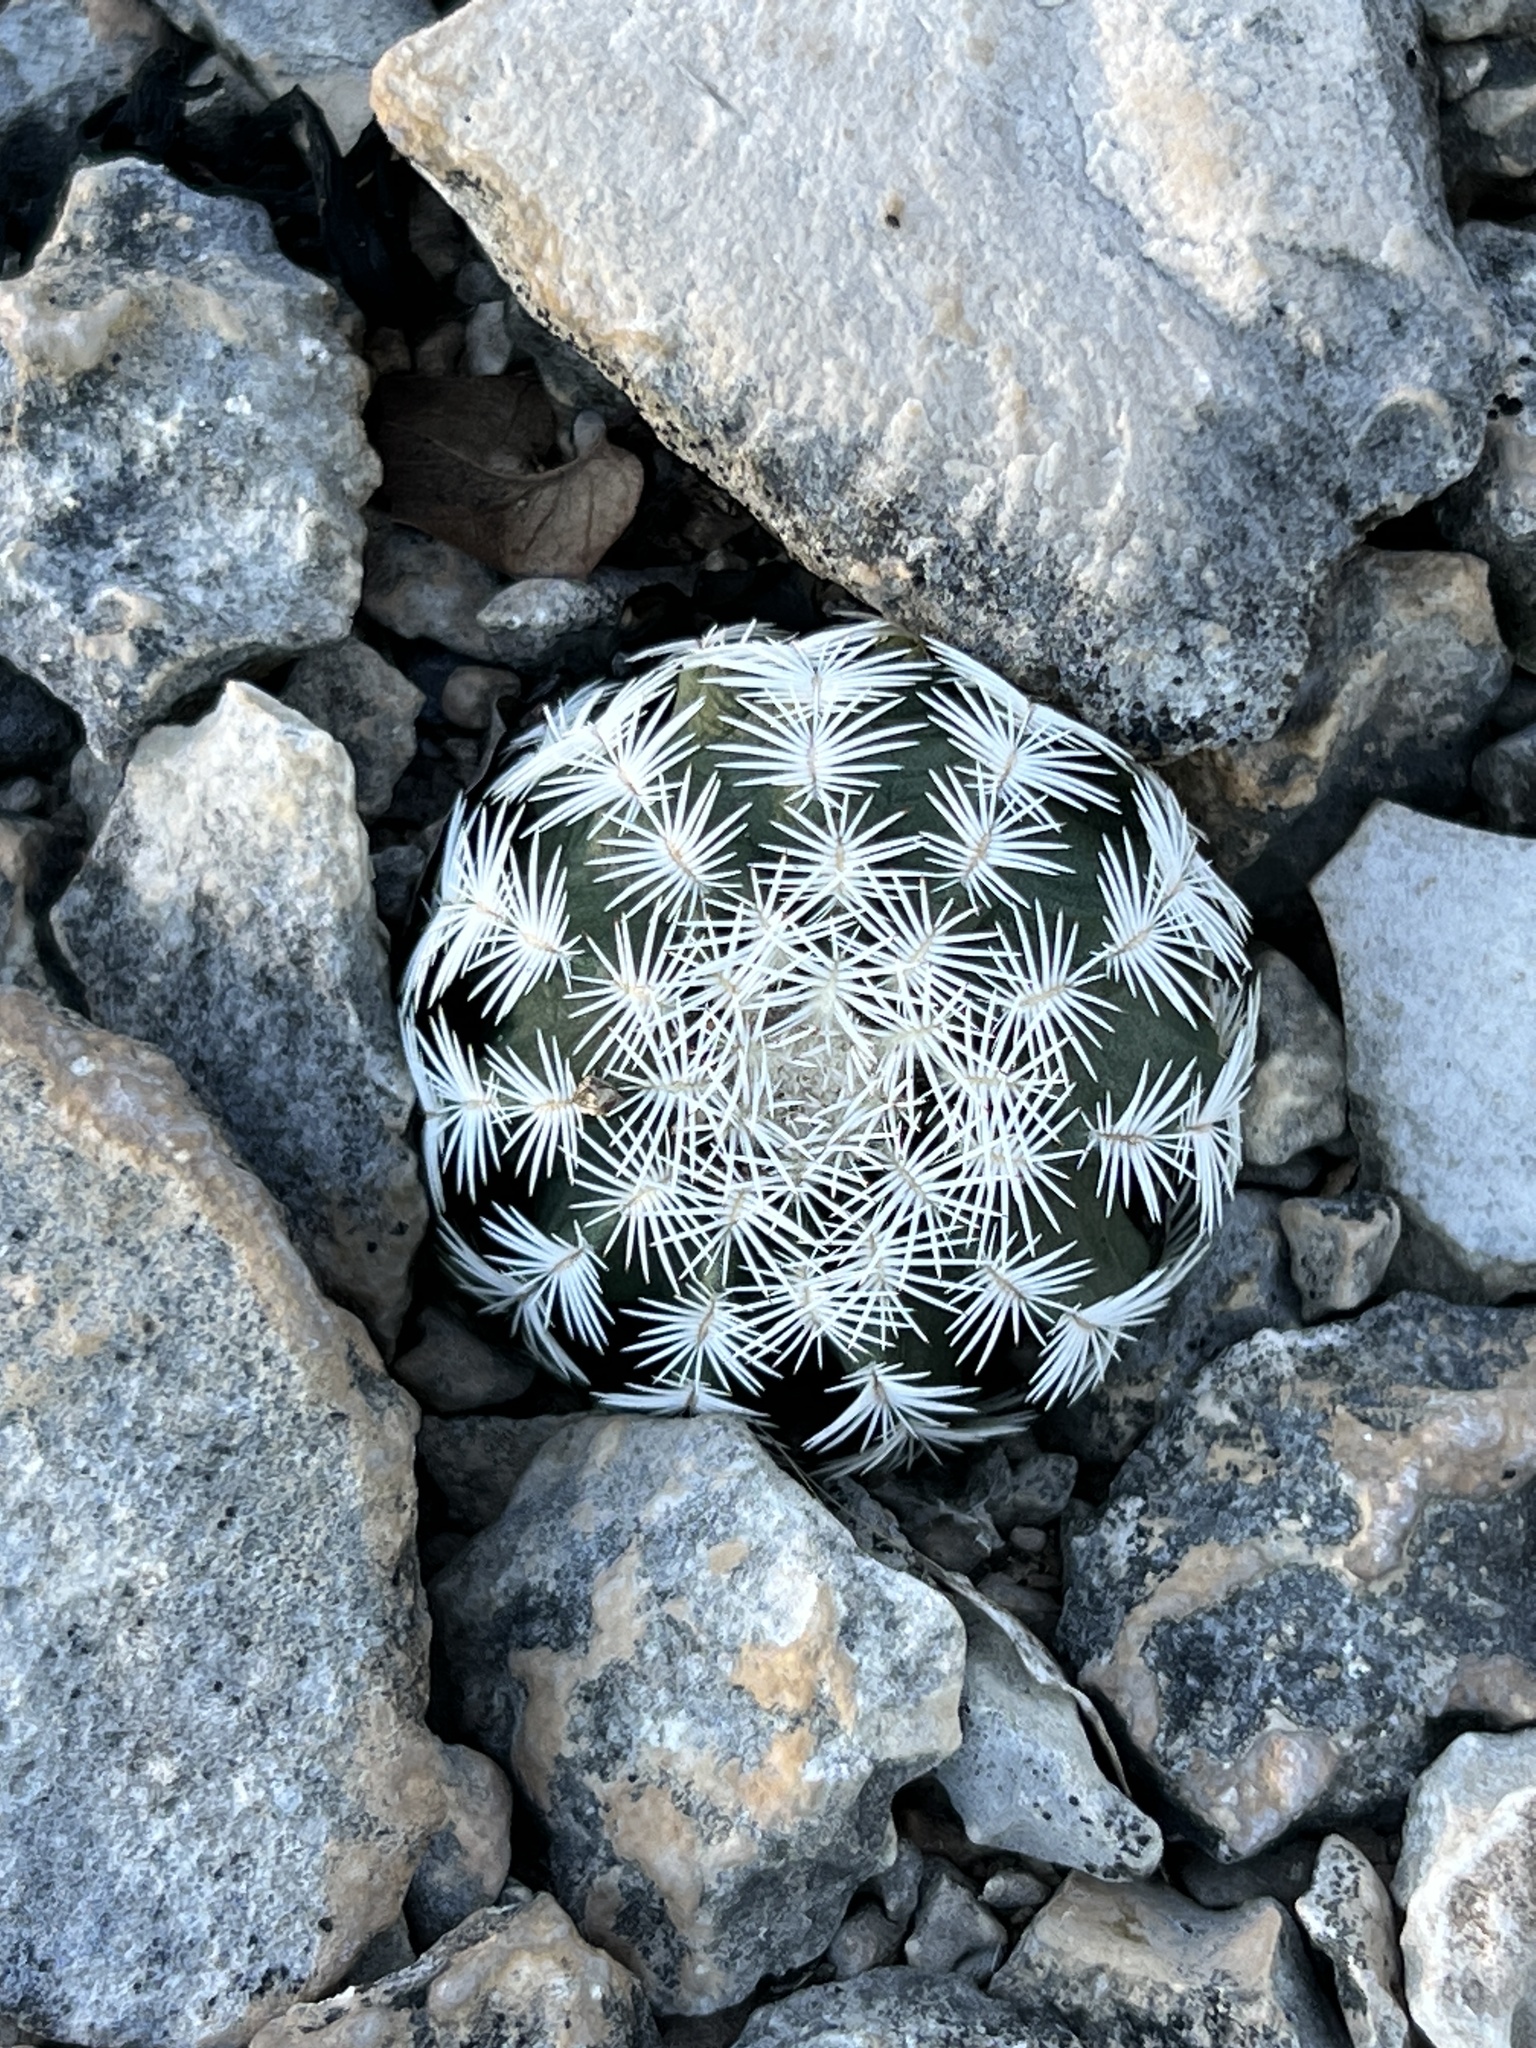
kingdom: Plantae
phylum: Tracheophyta
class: Magnoliopsida
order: Caryophyllales
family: Cactaceae
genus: Echinocereus
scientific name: Echinocereus reichenbachii
